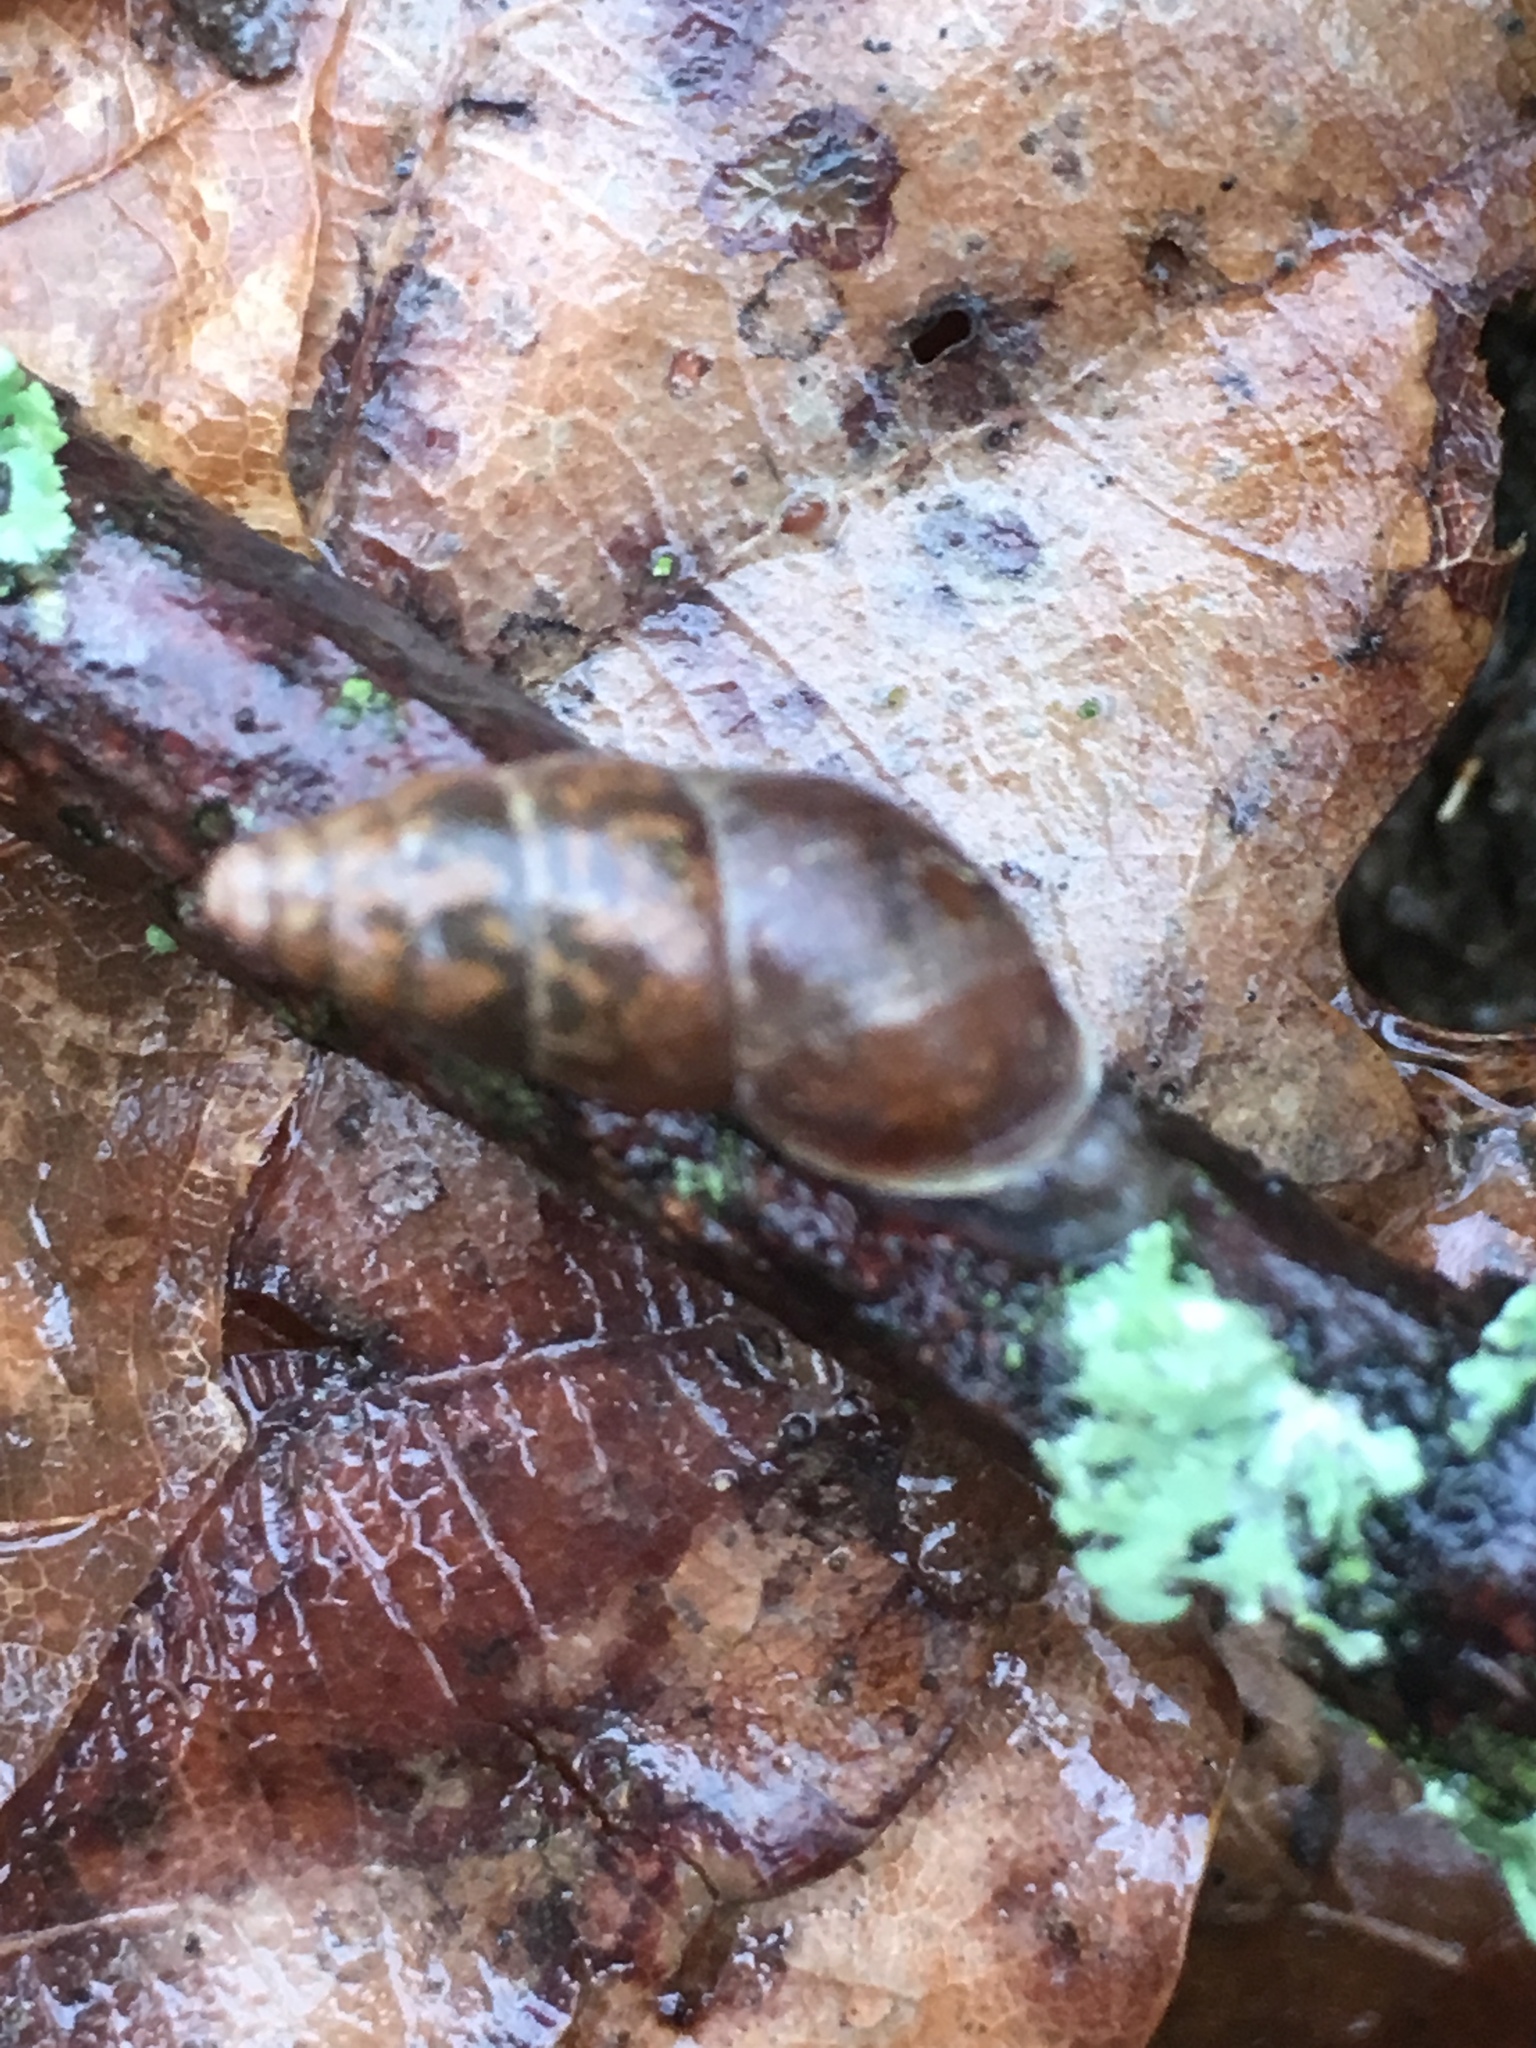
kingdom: Animalia
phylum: Mollusca
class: Gastropoda
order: Stylommatophora
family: Enidae
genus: Ena
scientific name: Ena montana
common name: Mountain bulin
